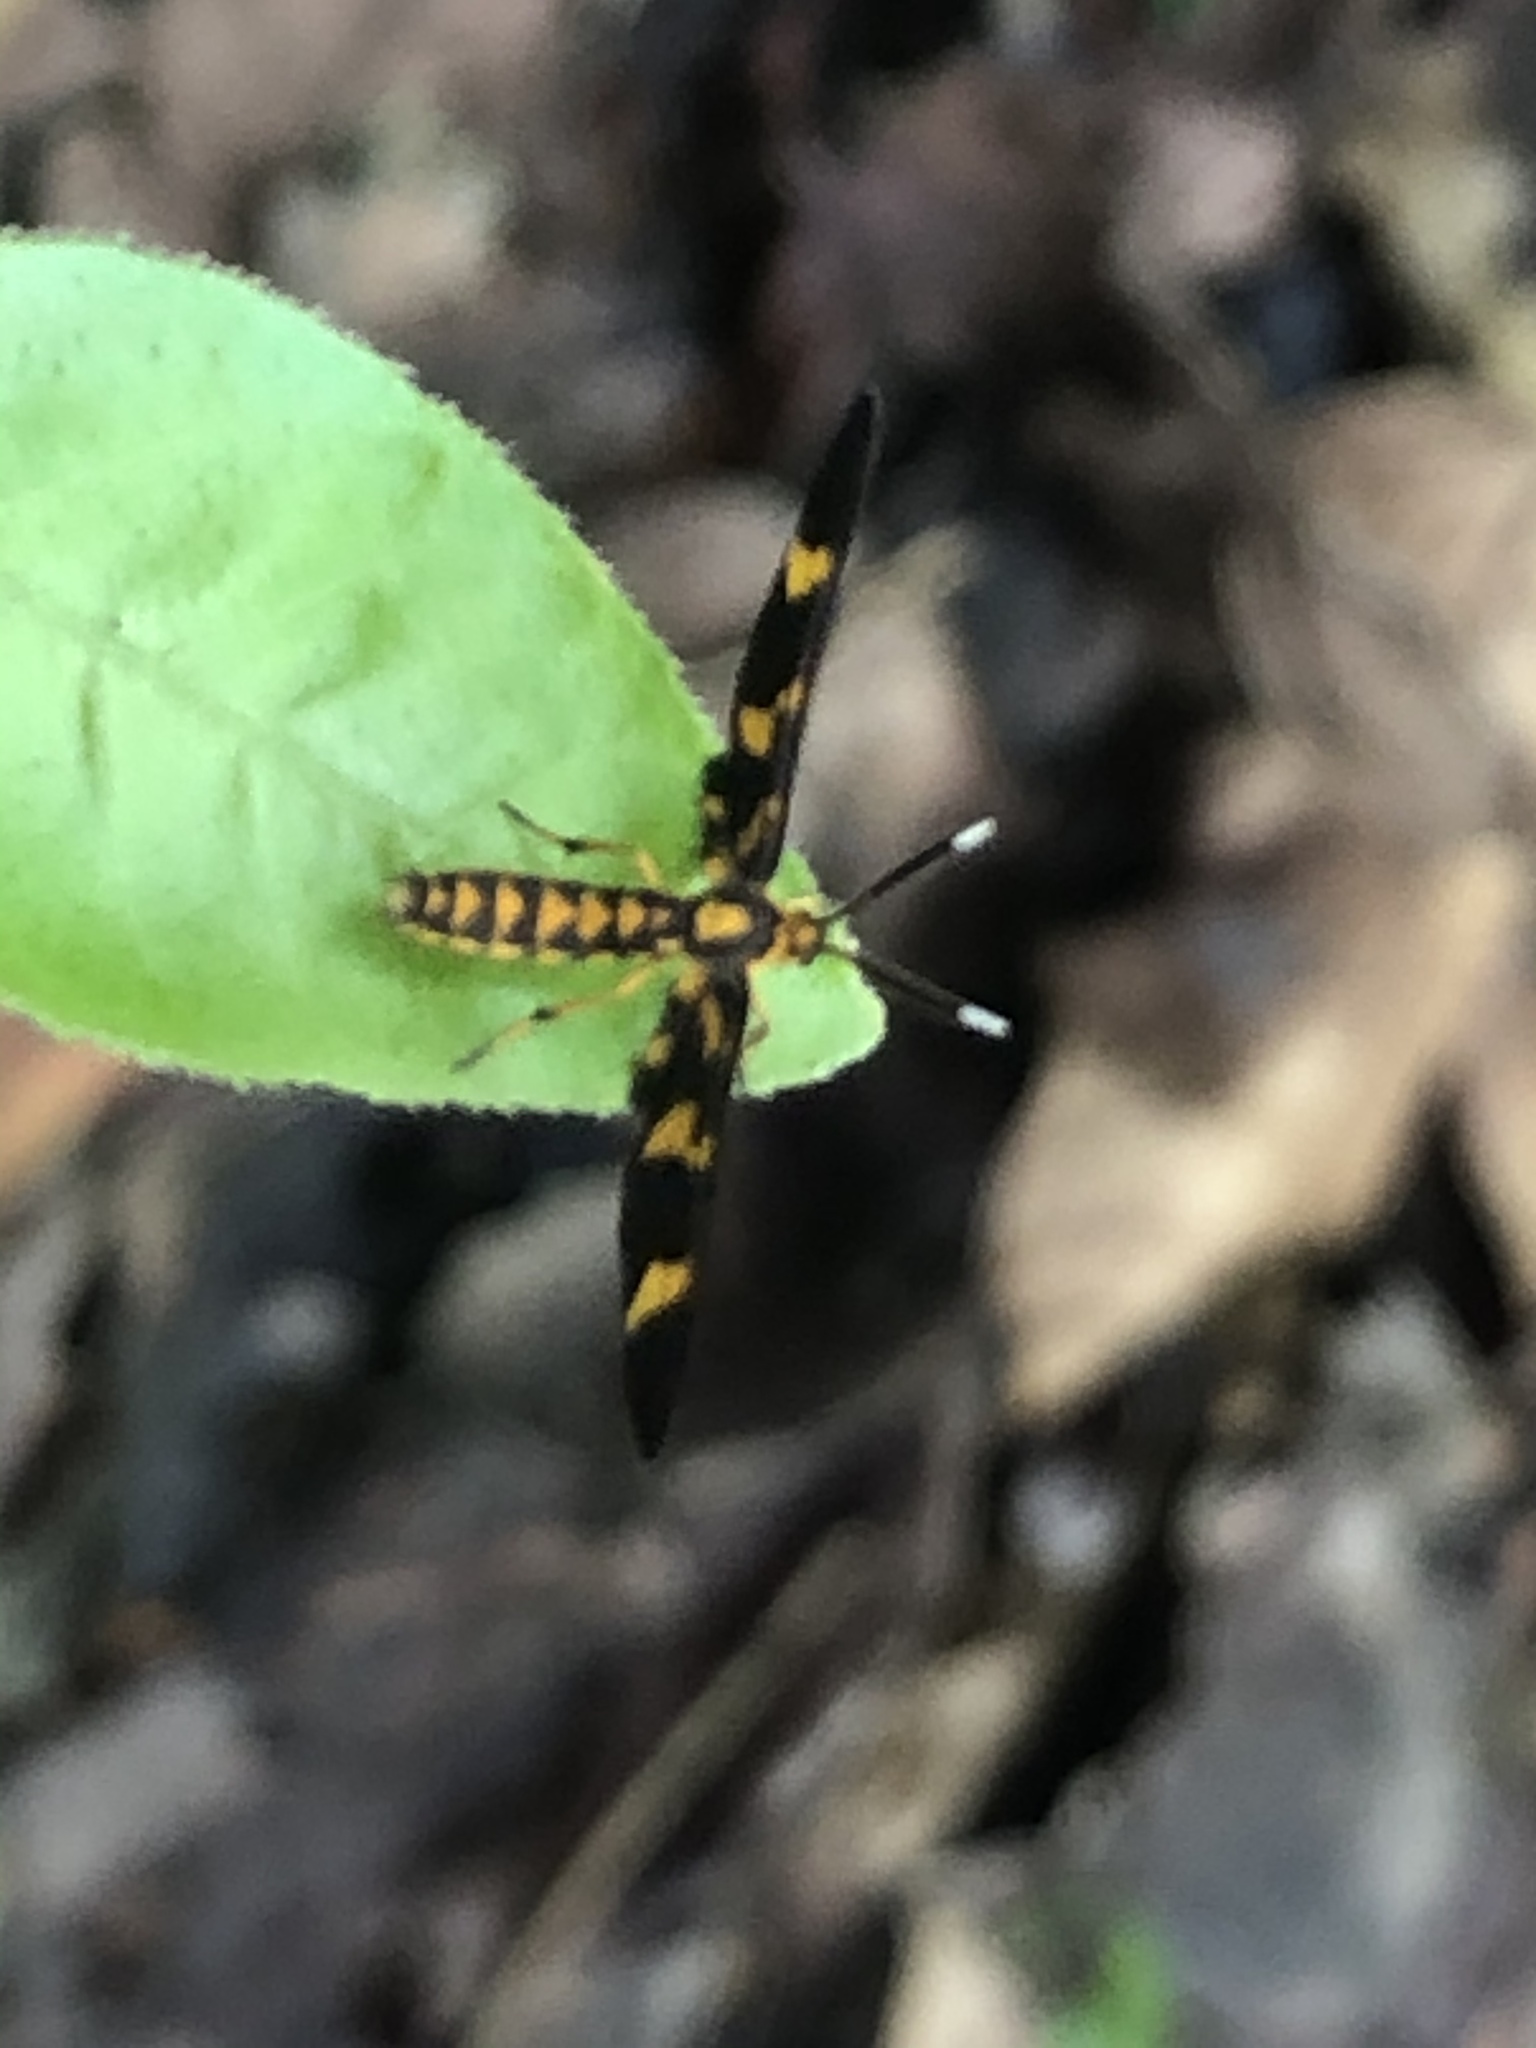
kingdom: Animalia
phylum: Arthropoda
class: Insecta
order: Lepidoptera
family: Erebidae
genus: Pseudonaclia
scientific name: Pseudonaclia bifasciata
